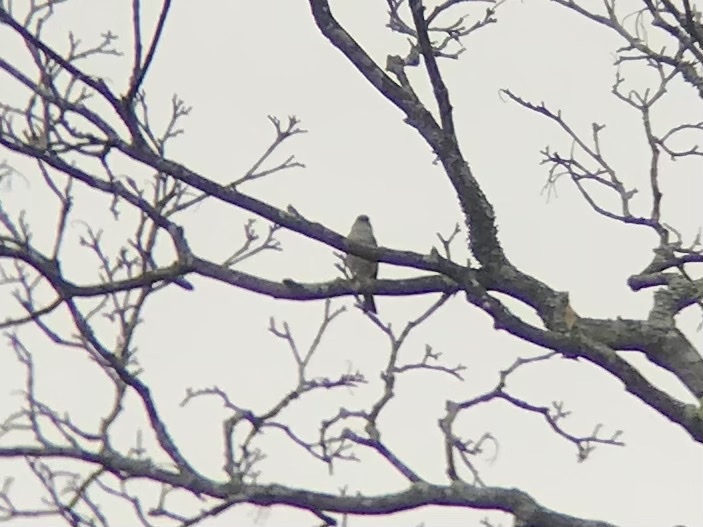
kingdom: Animalia
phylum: Chordata
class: Aves
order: Passeriformes
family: Passerellidae
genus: Spizella
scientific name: Spizella passerina
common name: Chipping sparrow
